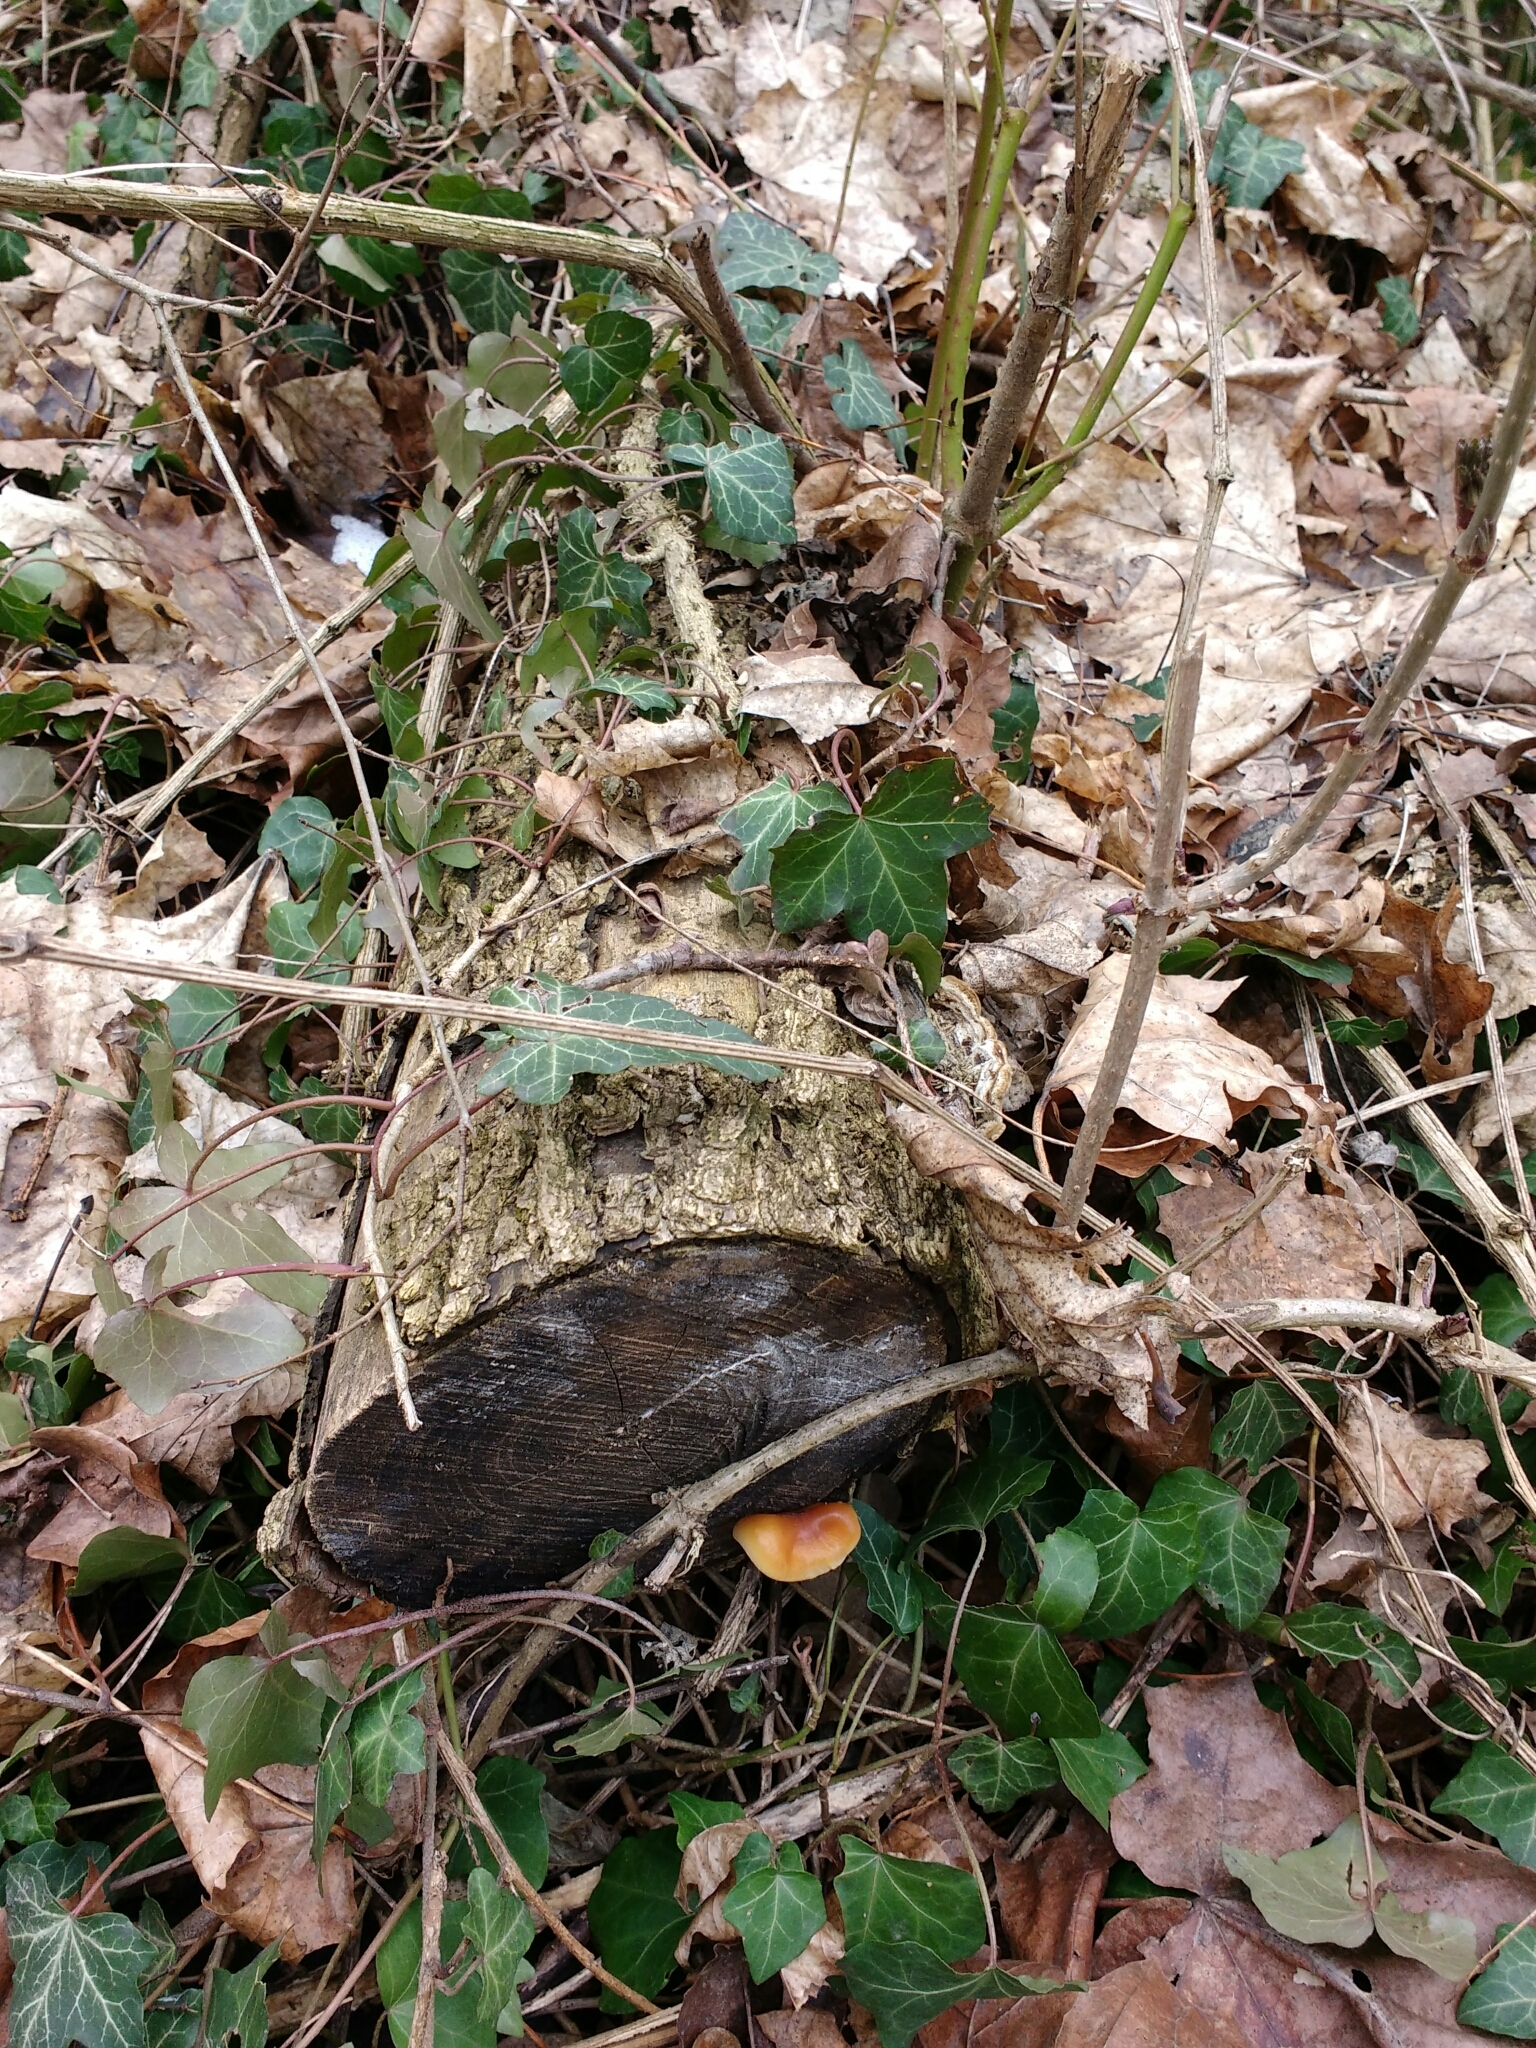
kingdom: Fungi
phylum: Basidiomycota
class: Agaricomycetes
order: Agaricales
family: Physalacriaceae
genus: Flammulina
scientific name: Flammulina
